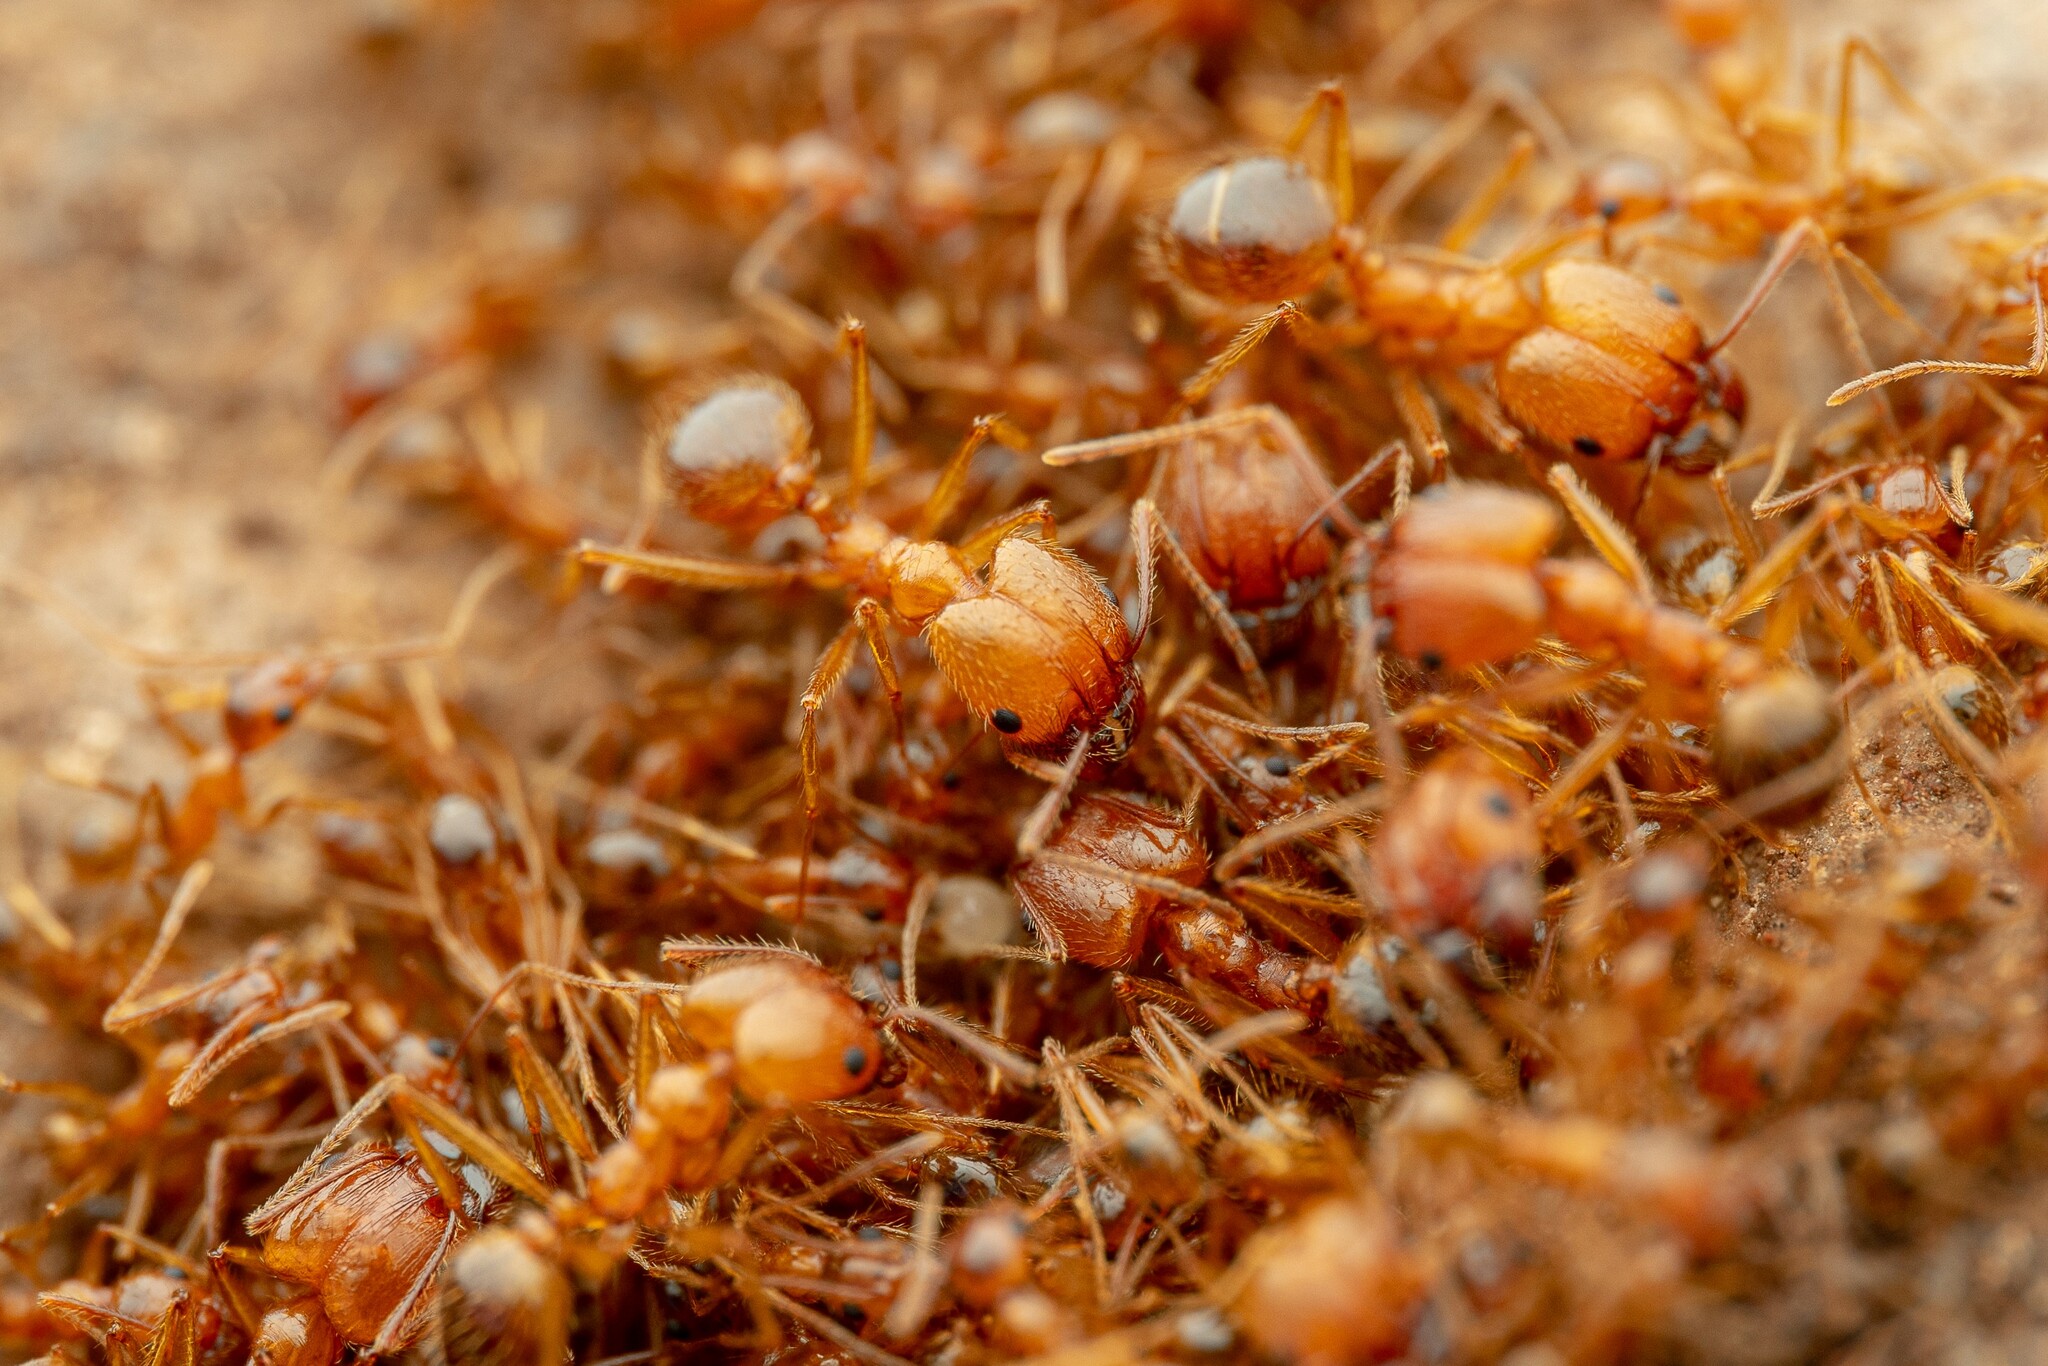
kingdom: Animalia
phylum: Arthropoda
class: Insecta
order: Hymenoptera
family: Formicidae
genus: Pheidole
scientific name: Pheidole desertorum
